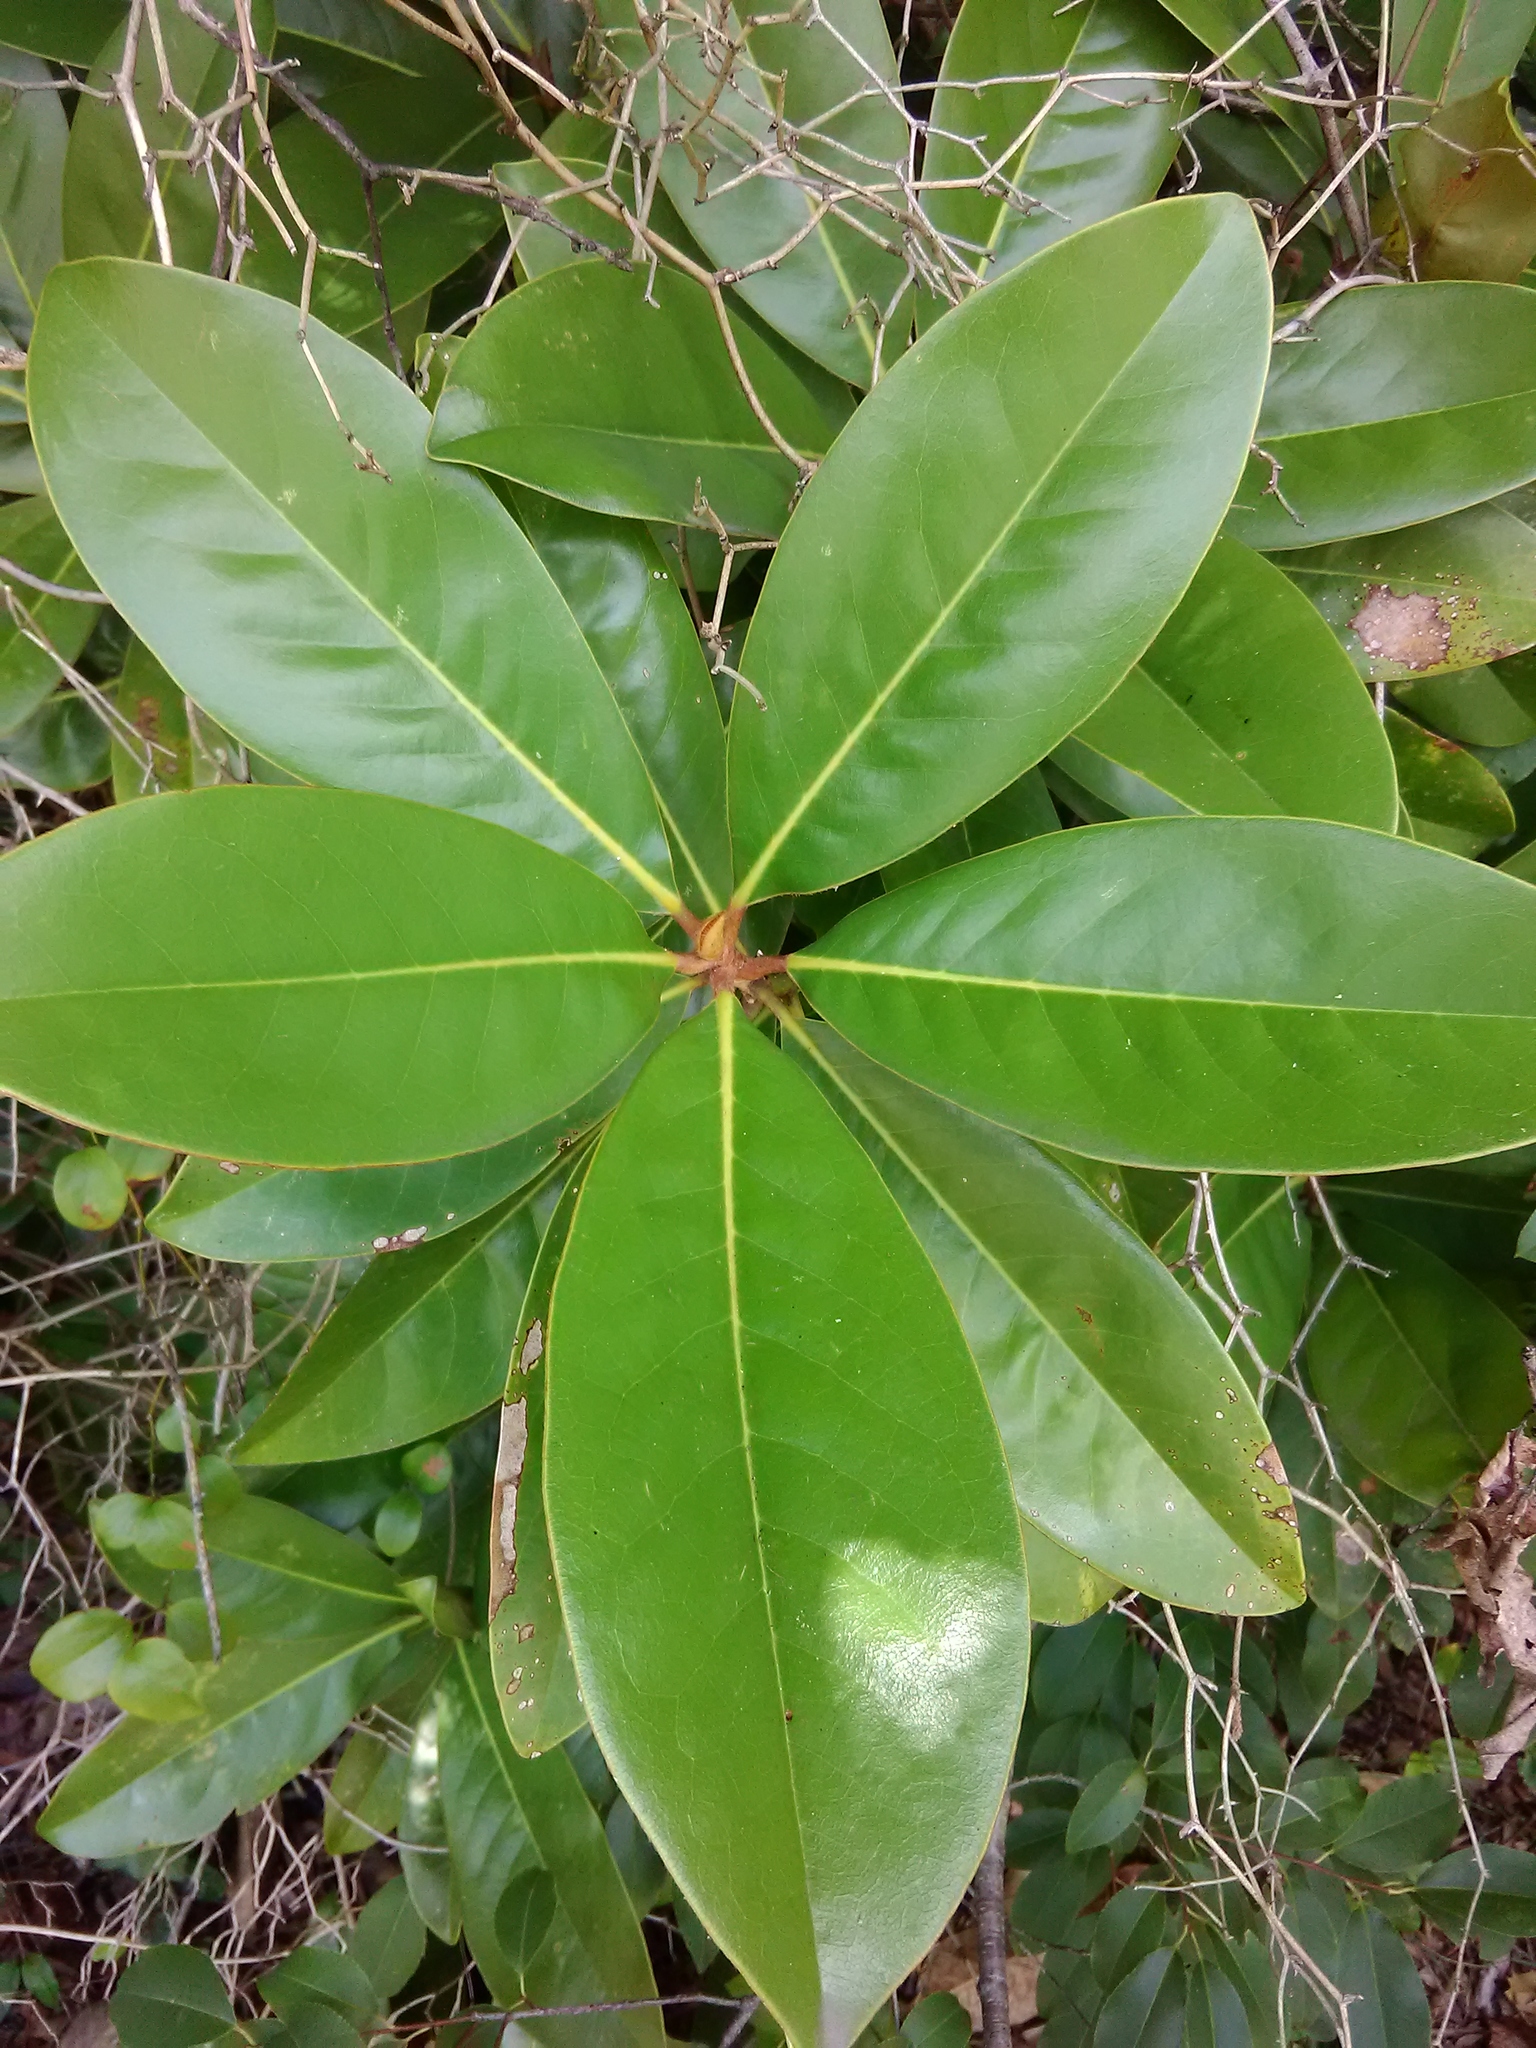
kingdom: Plantae
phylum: Tracheophyta
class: Magnoliopsida
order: Magnoliales
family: Magnoliaceae
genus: Magnolia
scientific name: Magnolia grandiflora
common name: Southern magnolia
